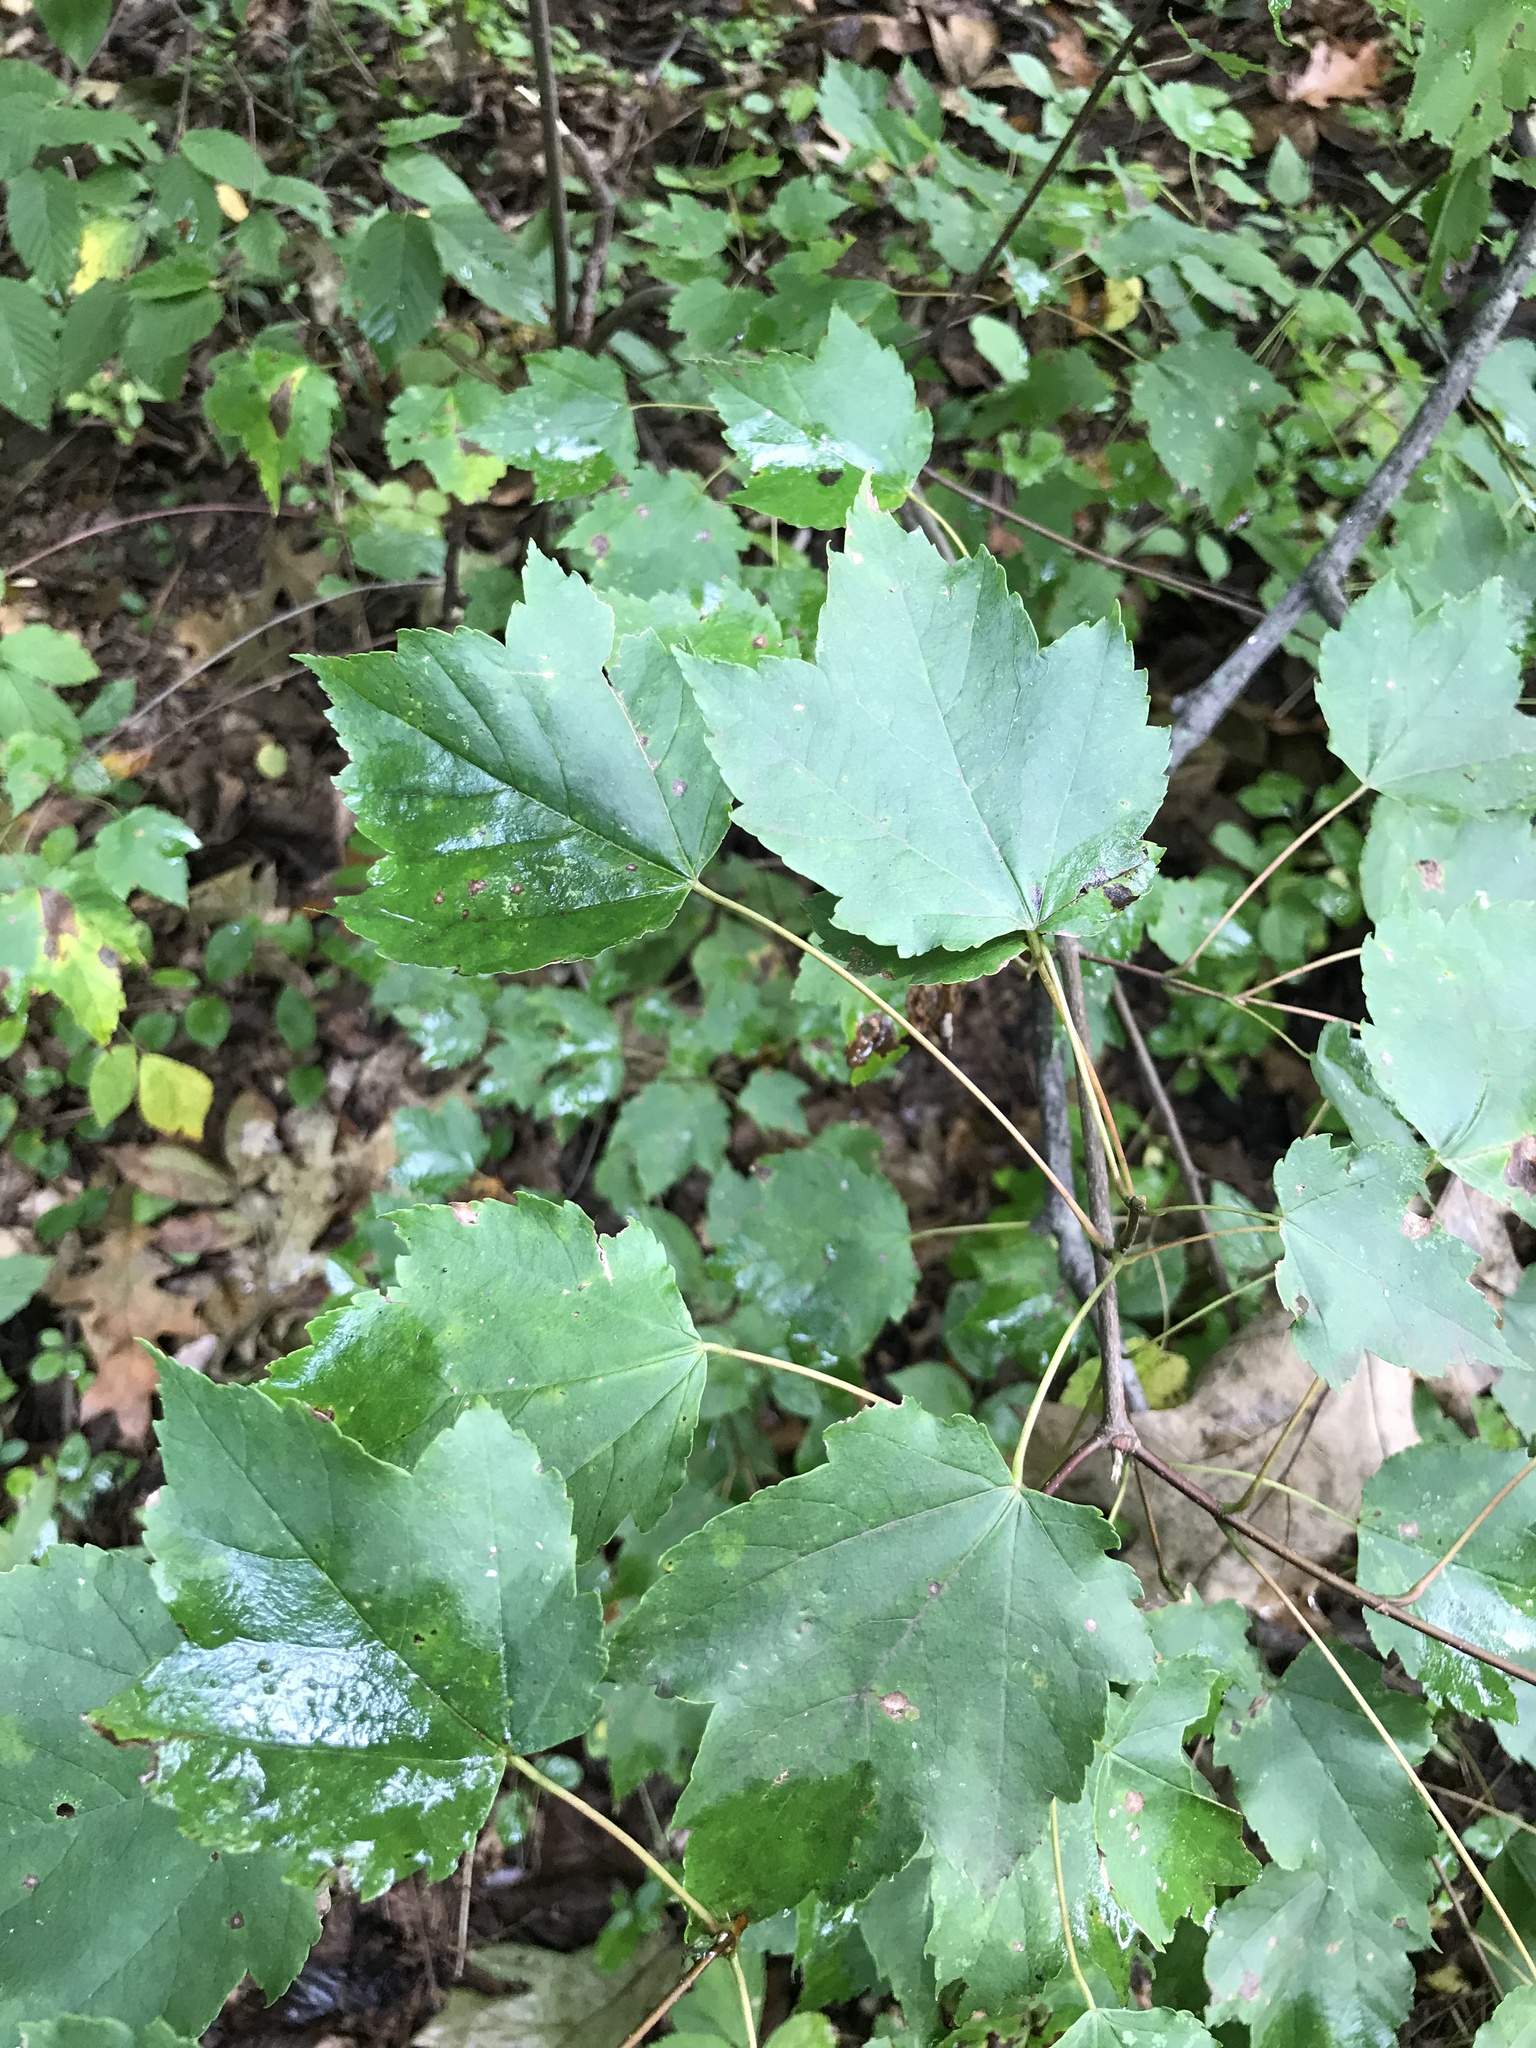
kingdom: Plantae
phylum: Tracheophyta
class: Magnoliopsida
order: Sapindales
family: Sapindaceae
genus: Acer
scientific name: Acer rubrum
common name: Red maple
